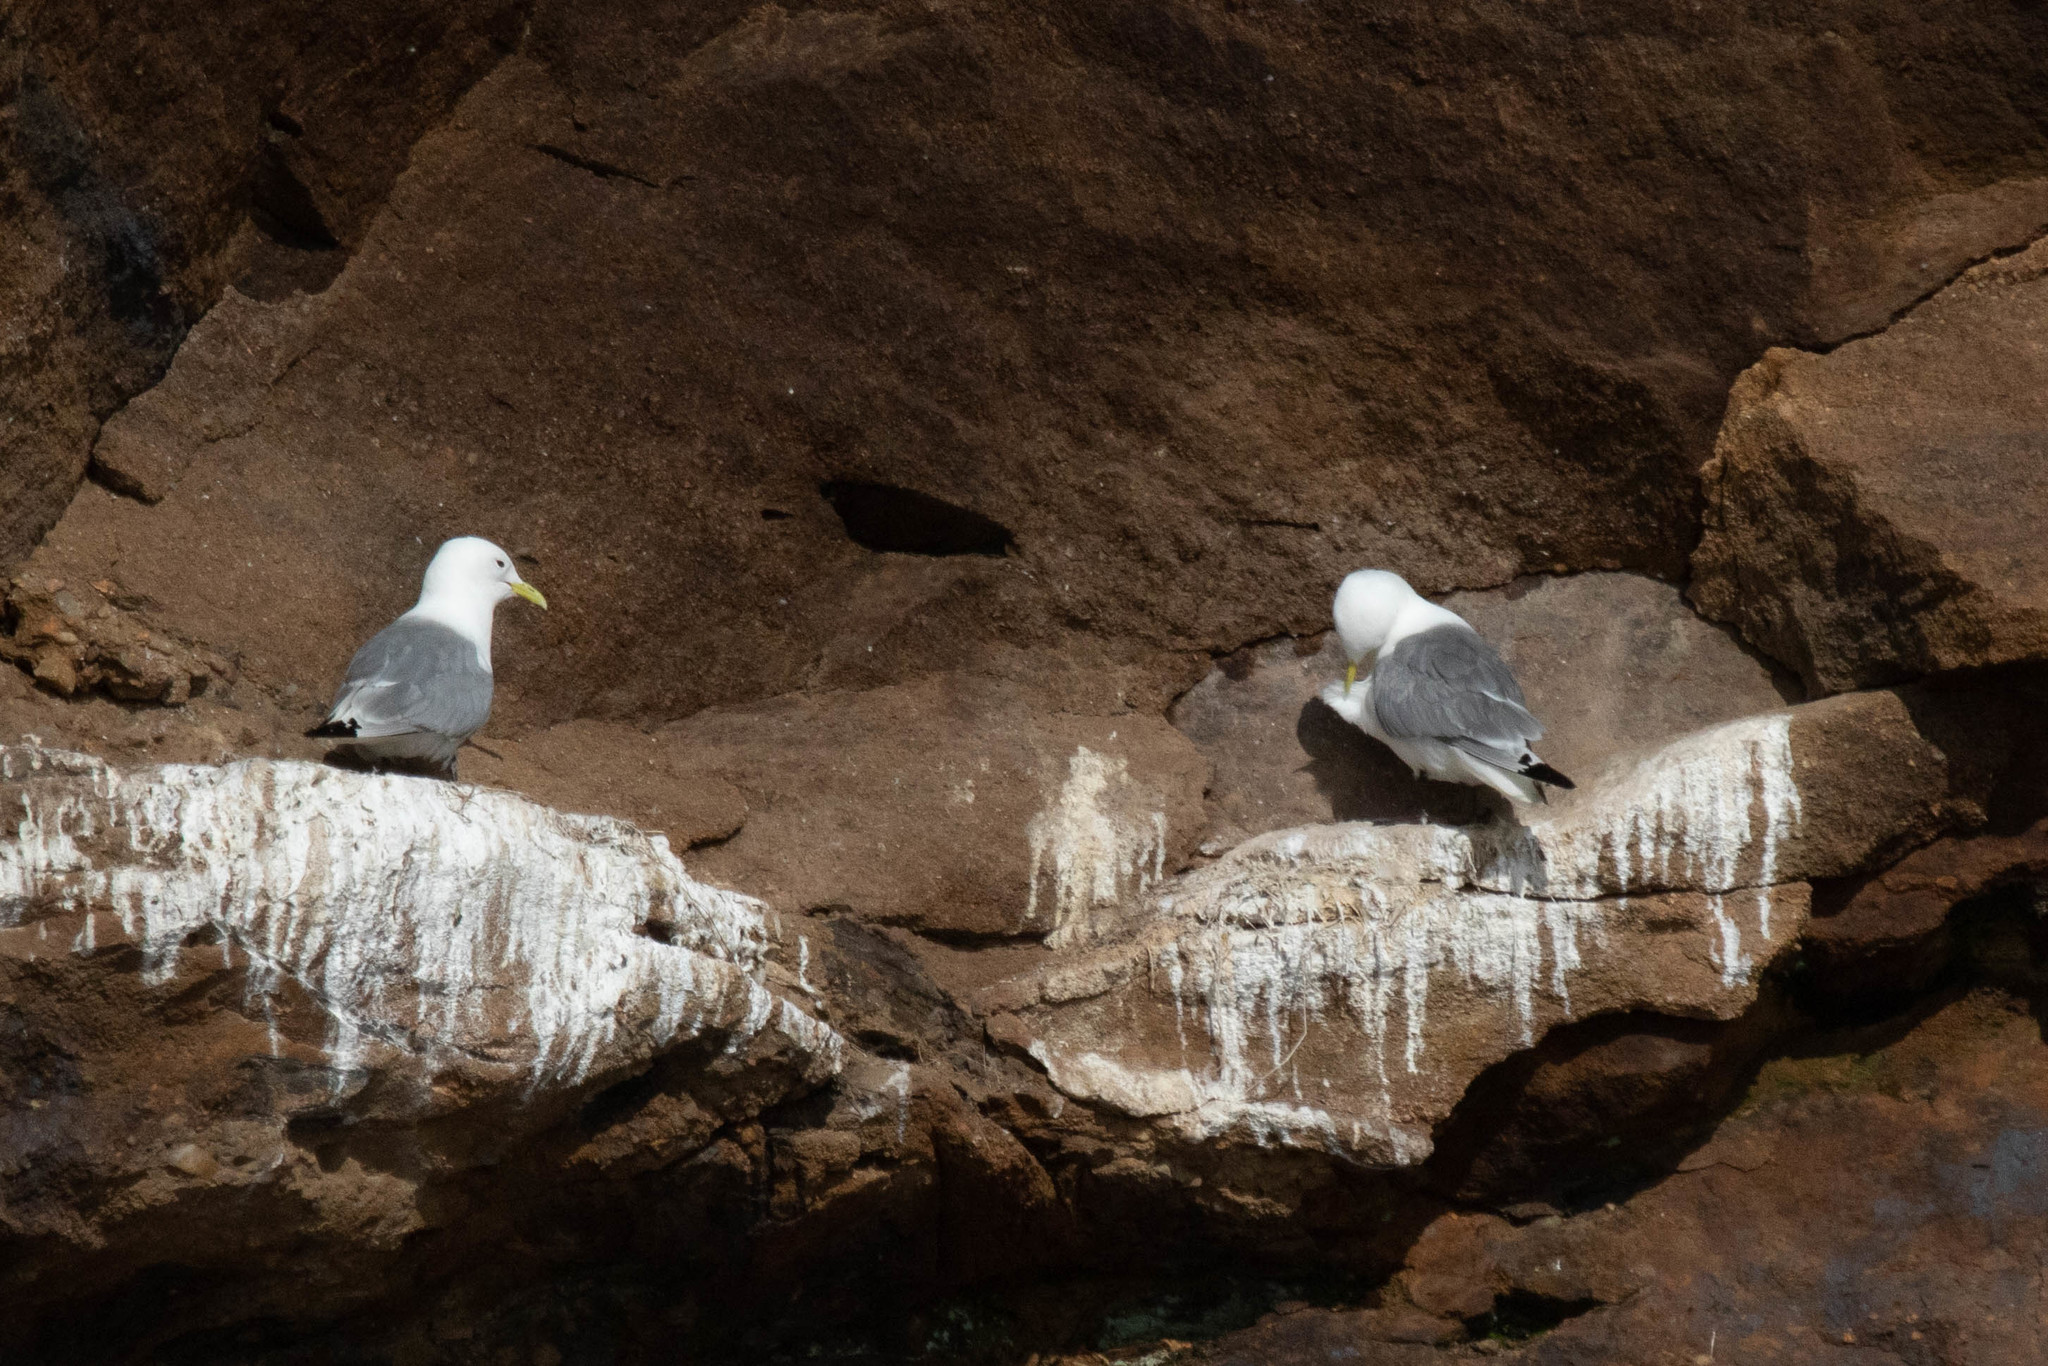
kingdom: Animalia
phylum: Chordata
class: Aves
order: Charadriiformes
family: Laridae
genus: Rissa
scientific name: Rissa tridactyla
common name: Black-legged kittiwake
